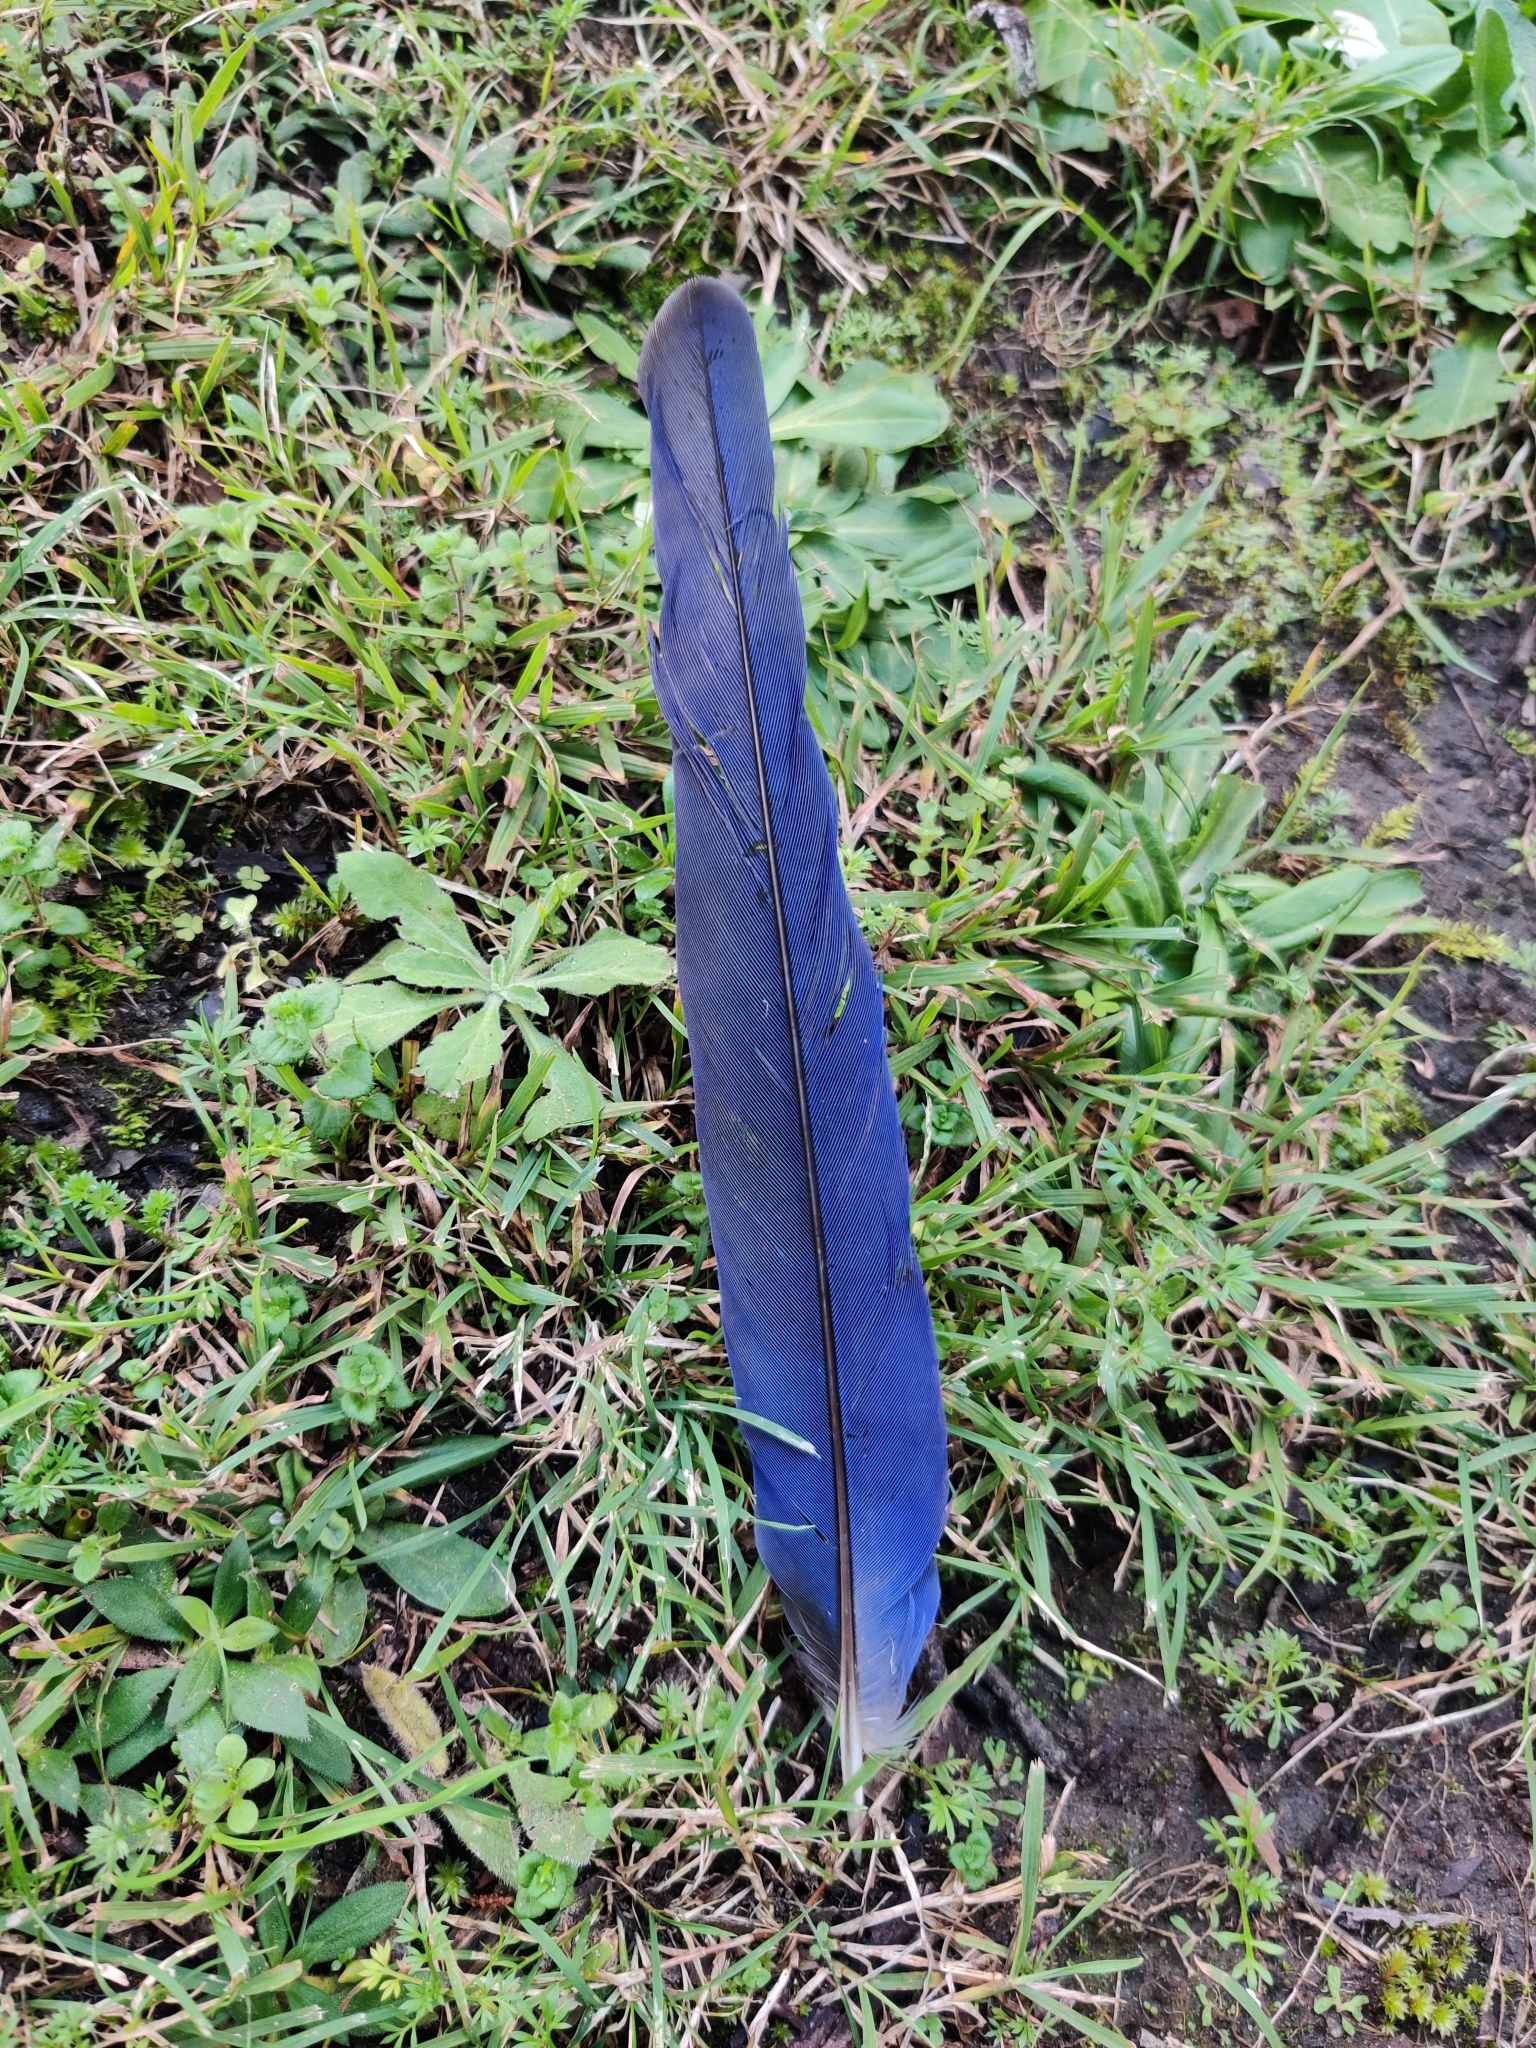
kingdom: Animalia
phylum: Chordata
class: Aves
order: Psittaciformes
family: Psittacidae
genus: Platycercus
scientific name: Platycercus elegans
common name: Crimson rosella
